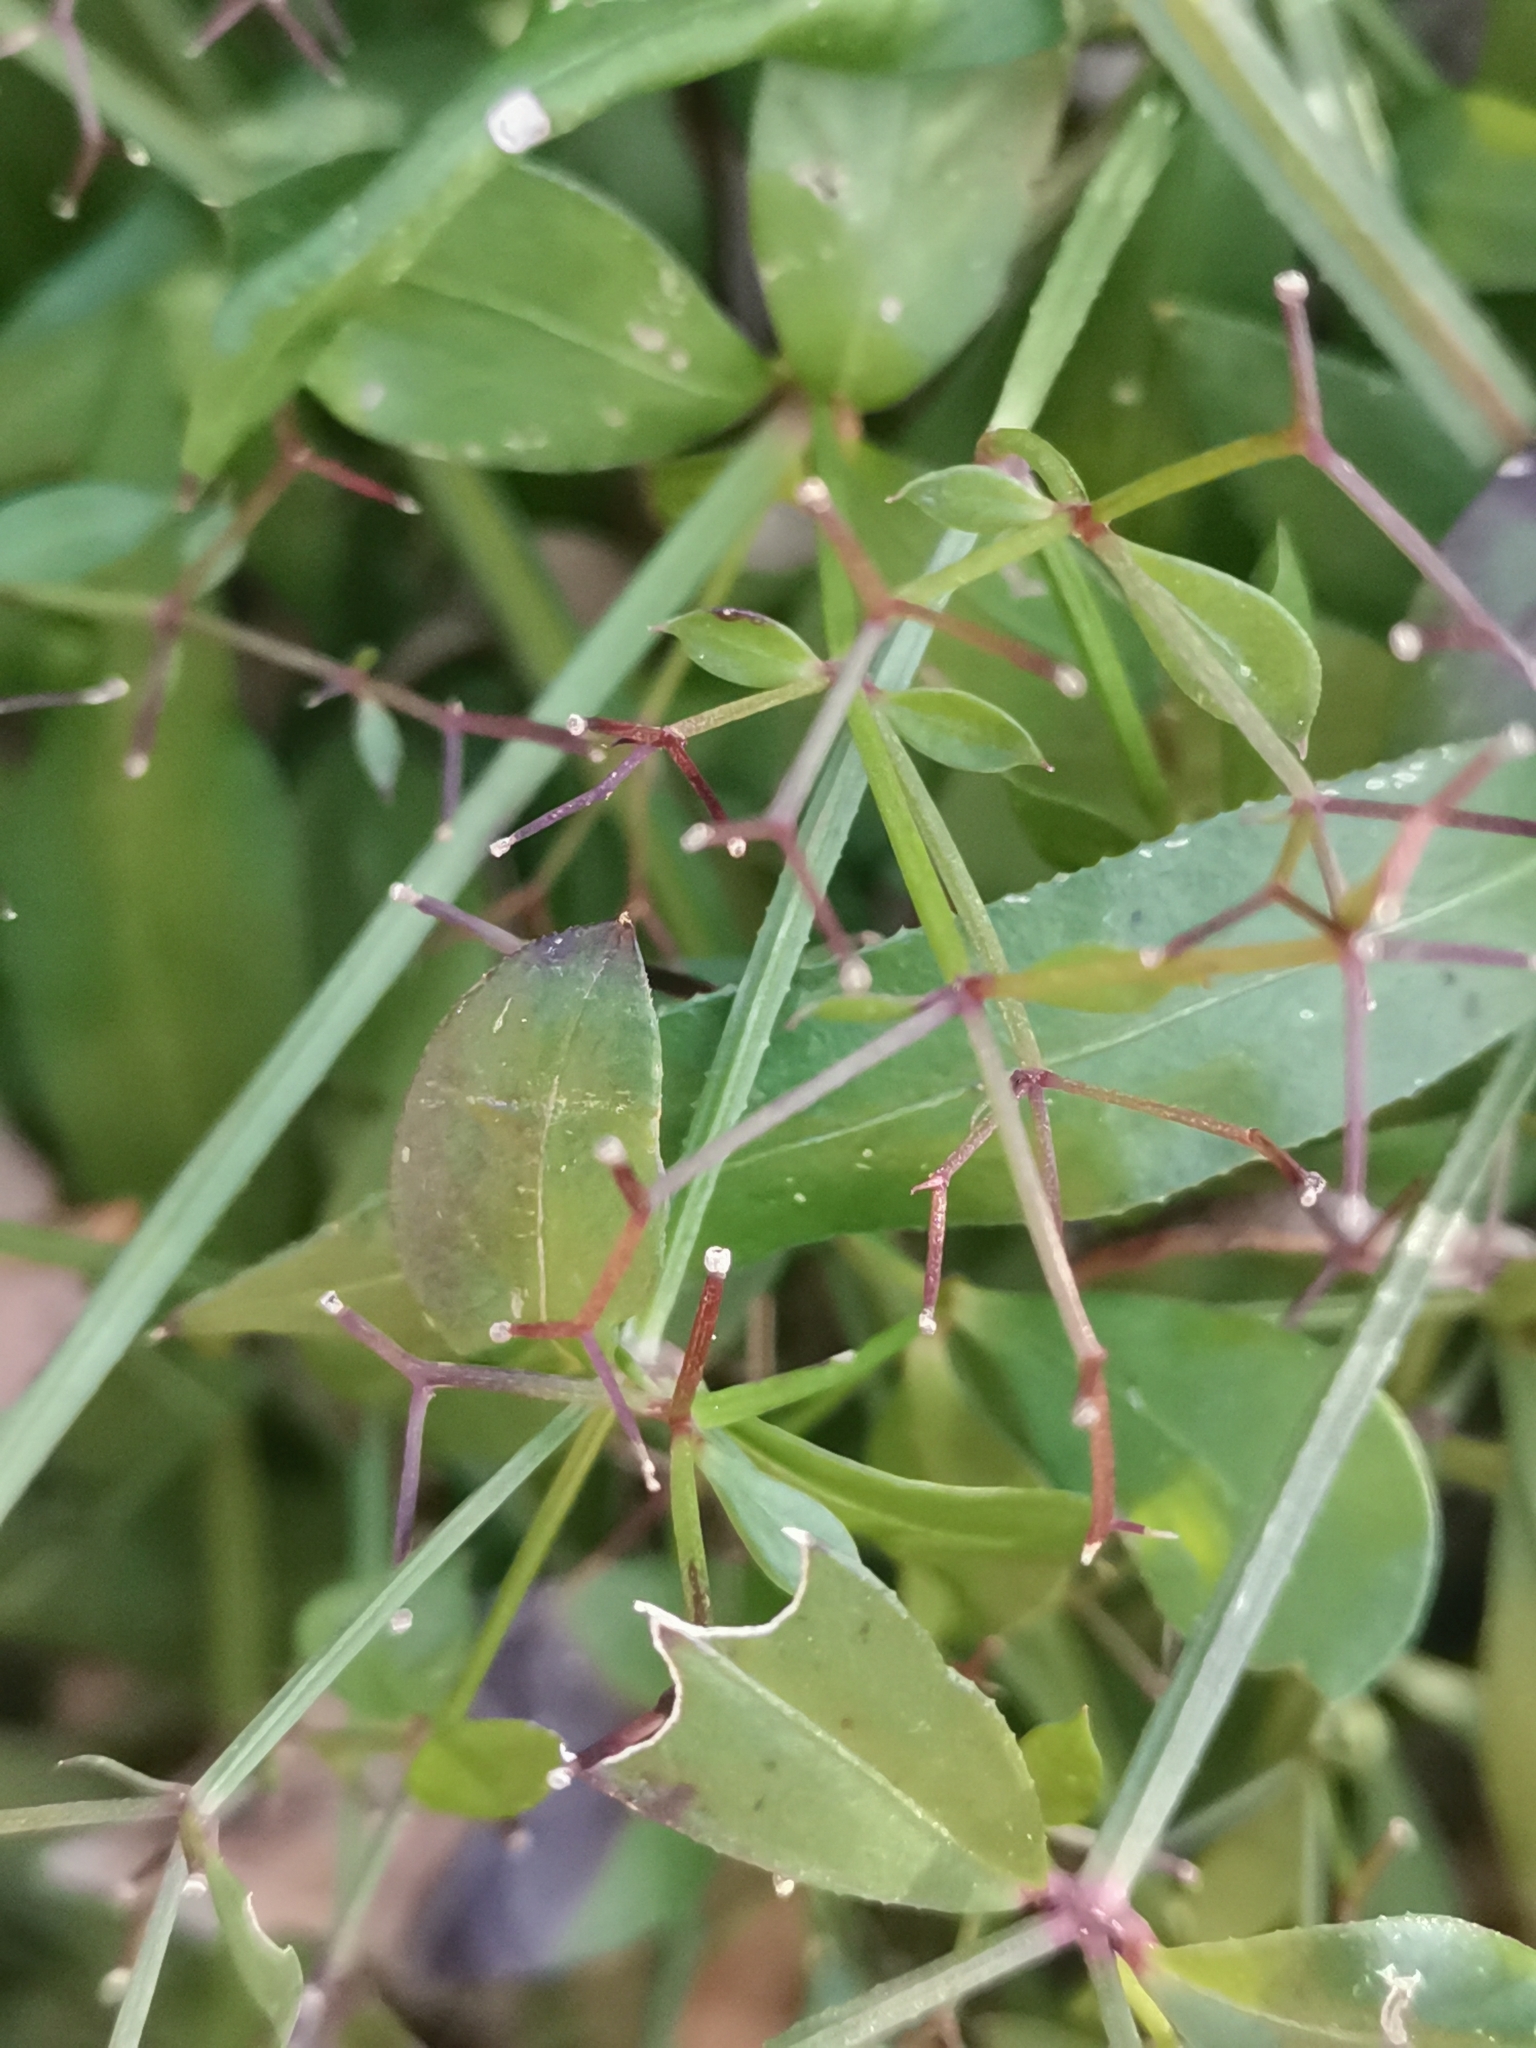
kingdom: Plantae
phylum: Tracheophyta
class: Magnoliopsida
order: Gentianales
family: Rubiaceae
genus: Rubia
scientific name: Rubia peregrina
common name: Wild madder
